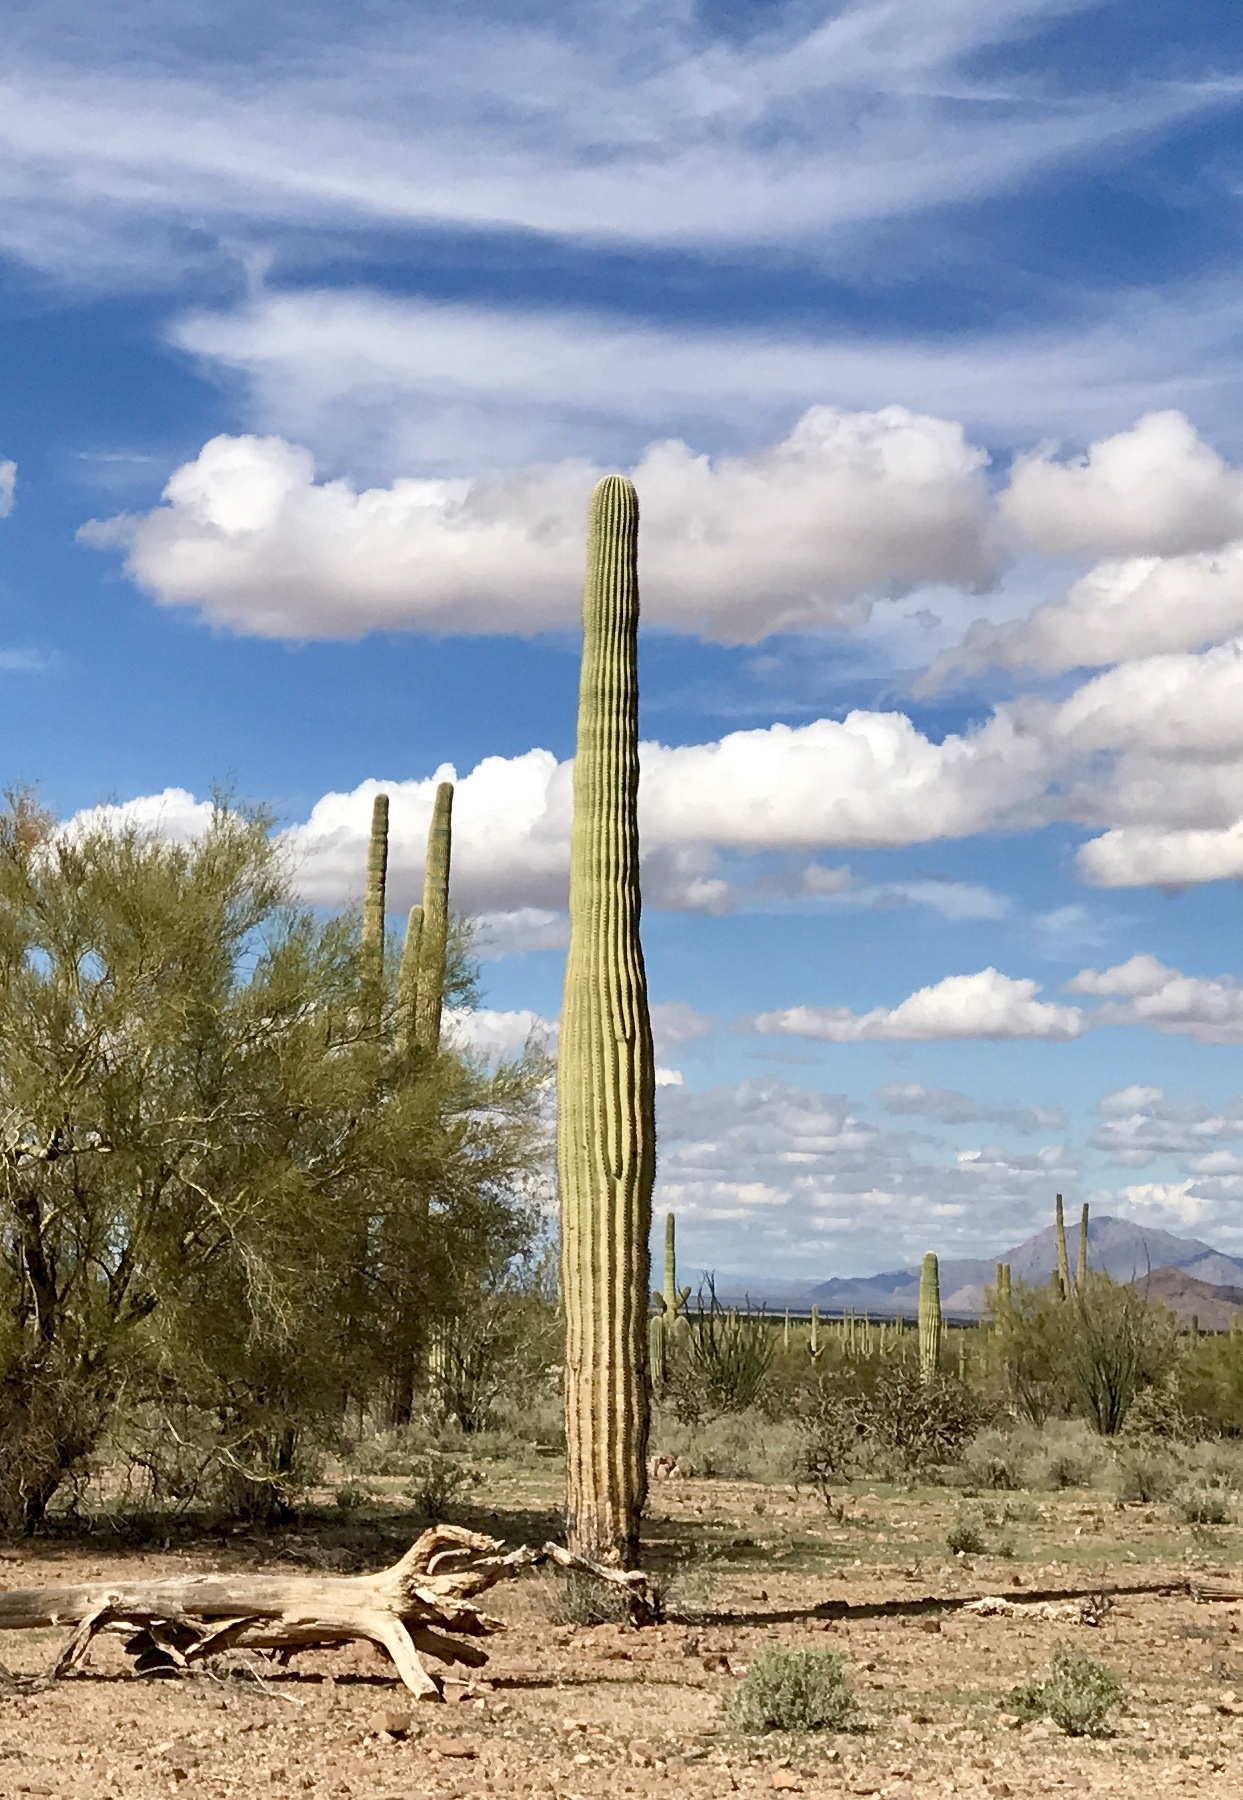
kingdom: Plantae
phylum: Tracheophyta
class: Magnoliopsida
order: Caryophyllales
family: Cactaceae
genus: Carnegiea
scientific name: Carnegiea gigantea
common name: Saguaro
